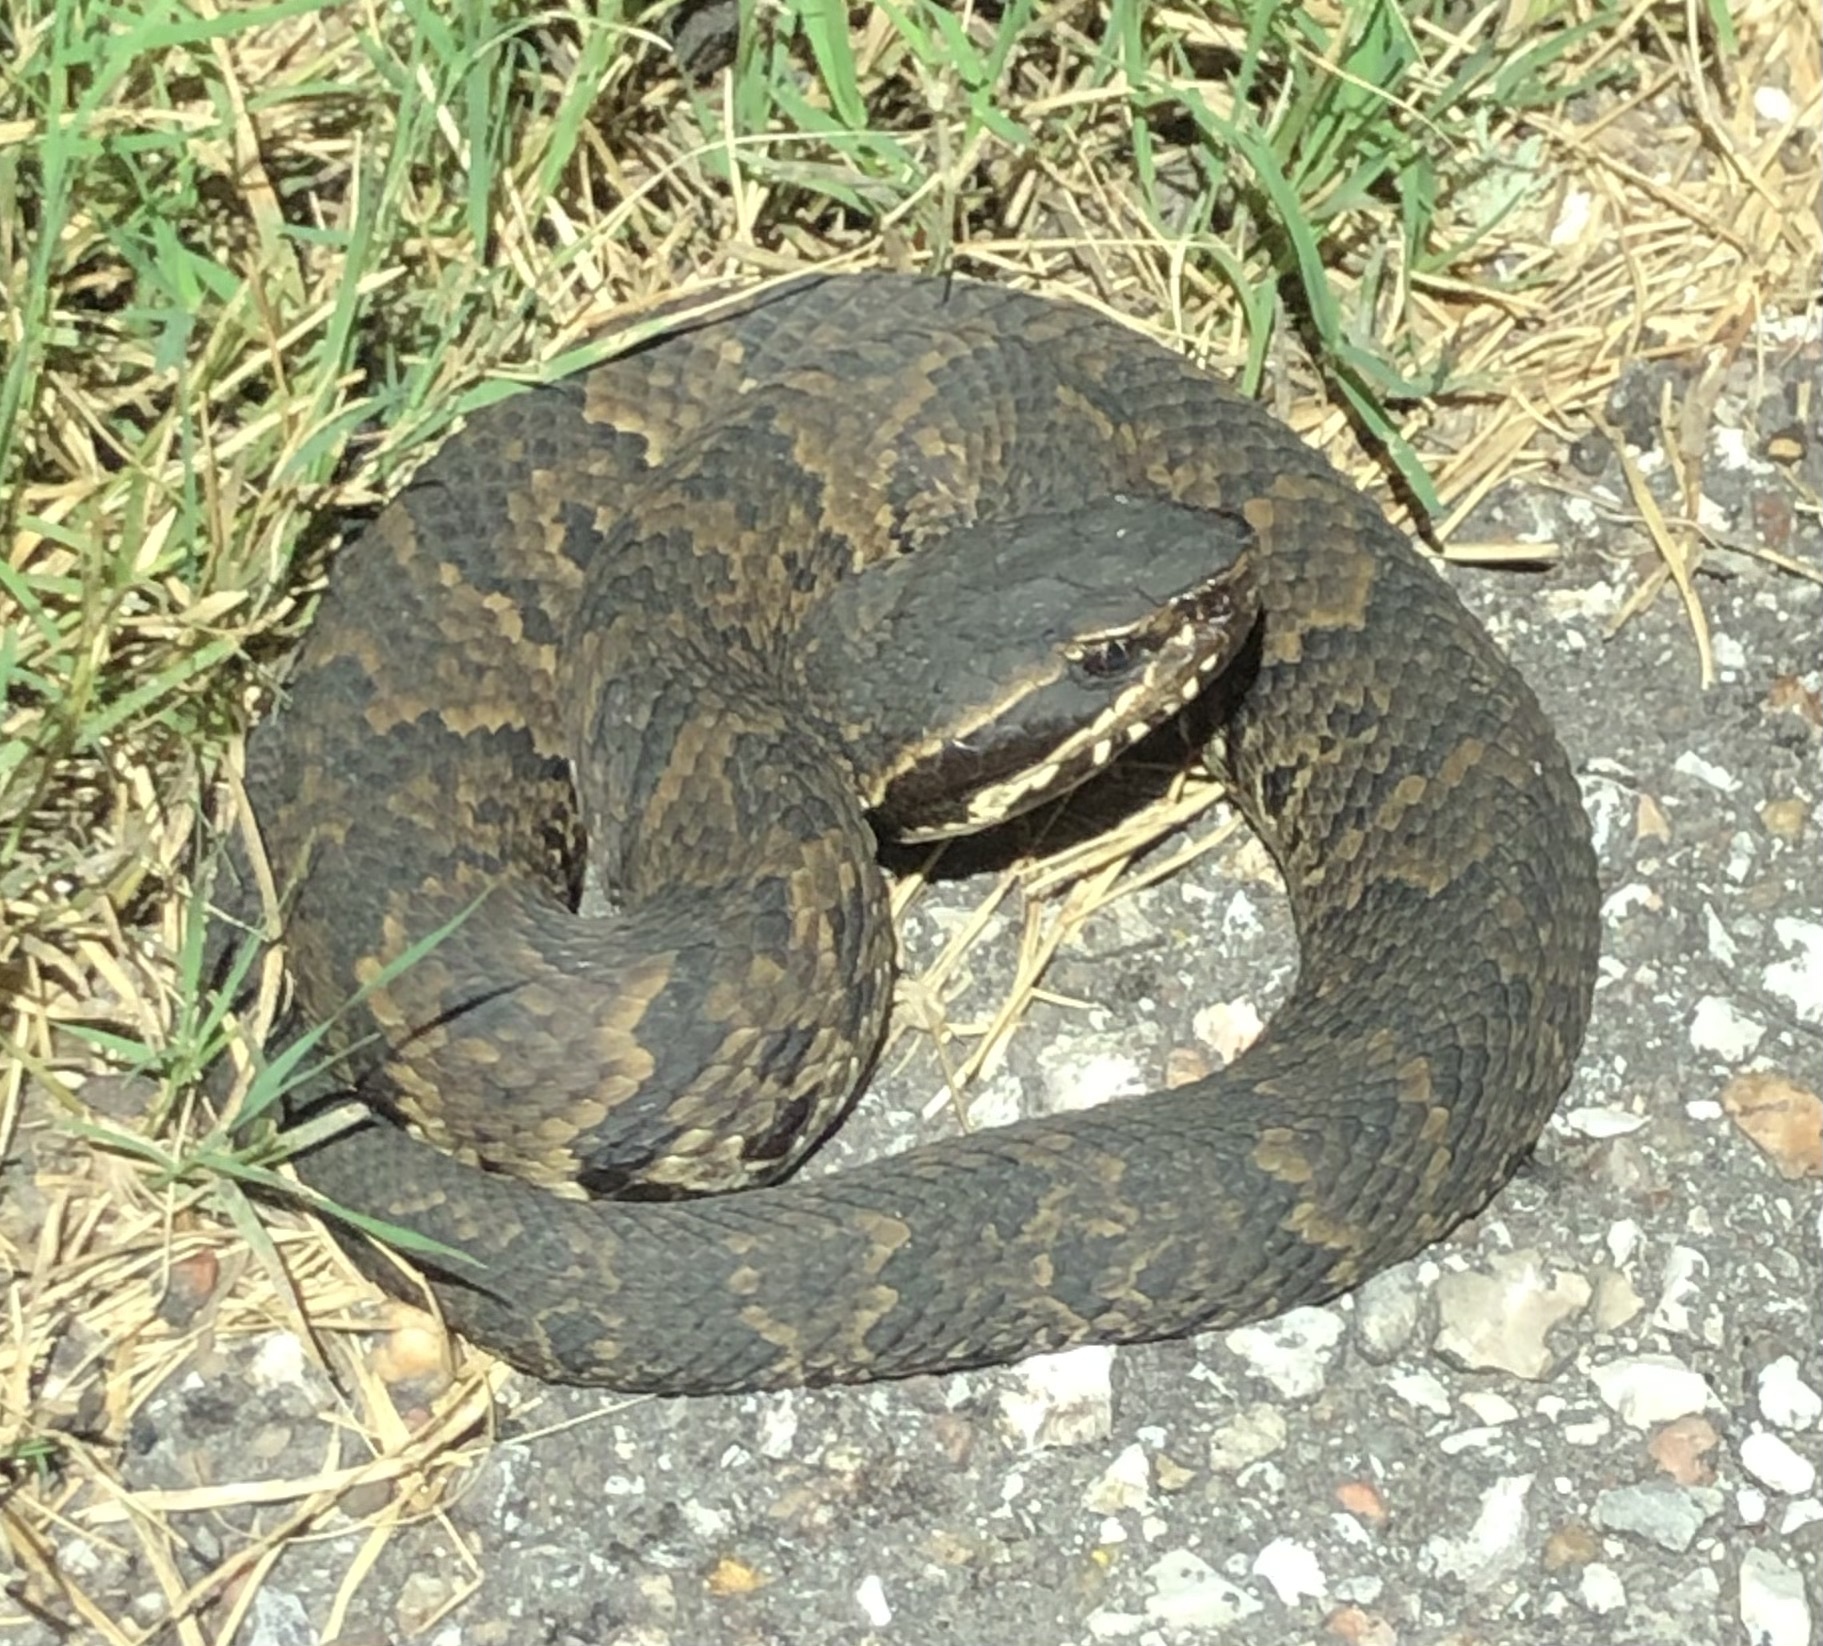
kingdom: Animalia
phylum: Chordata
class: Squamata
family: Viperidae
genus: Agkistrodon
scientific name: Agkistrodon piscivorus
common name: Cottonmouth
